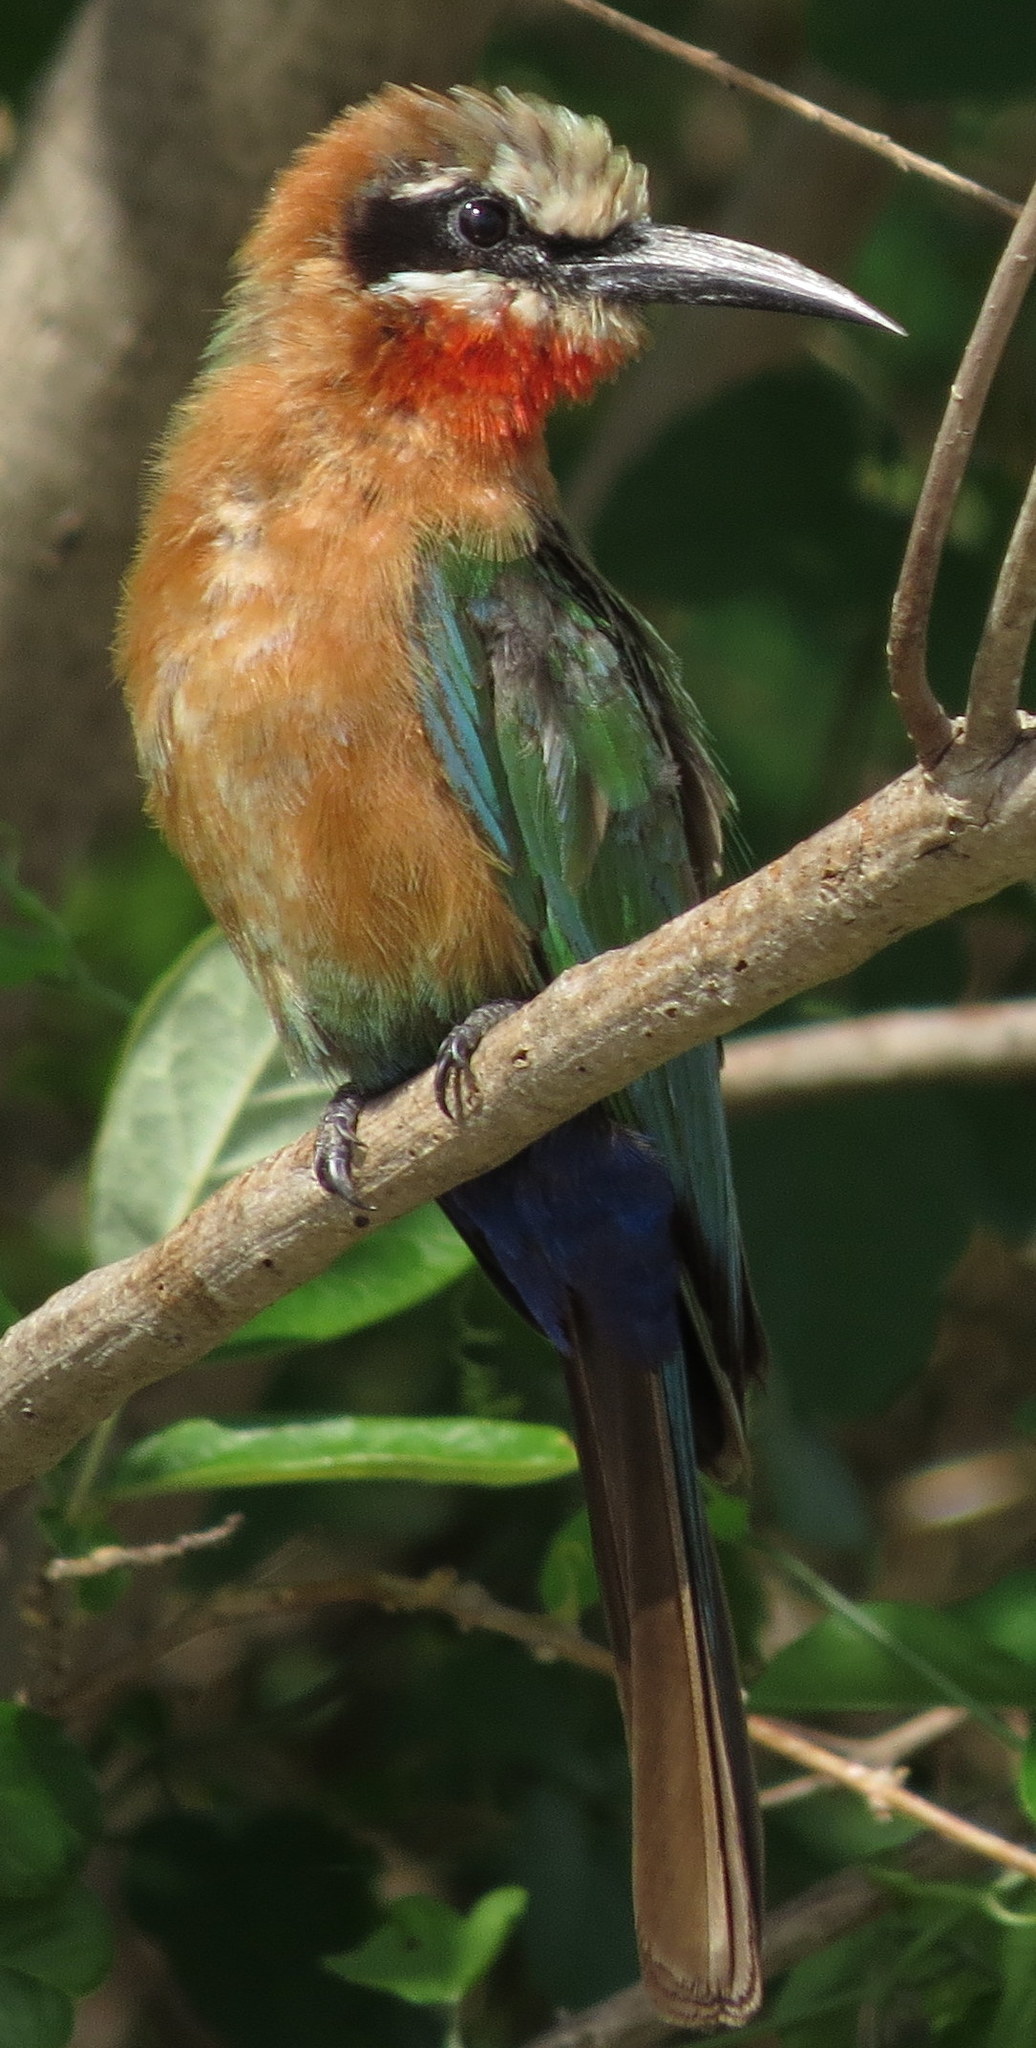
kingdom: Animalia
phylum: Chordata
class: Aves
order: Coraciiformes
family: Meropidae
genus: Merops
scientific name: Merops bullockoides
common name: White-fronted bee-eater
